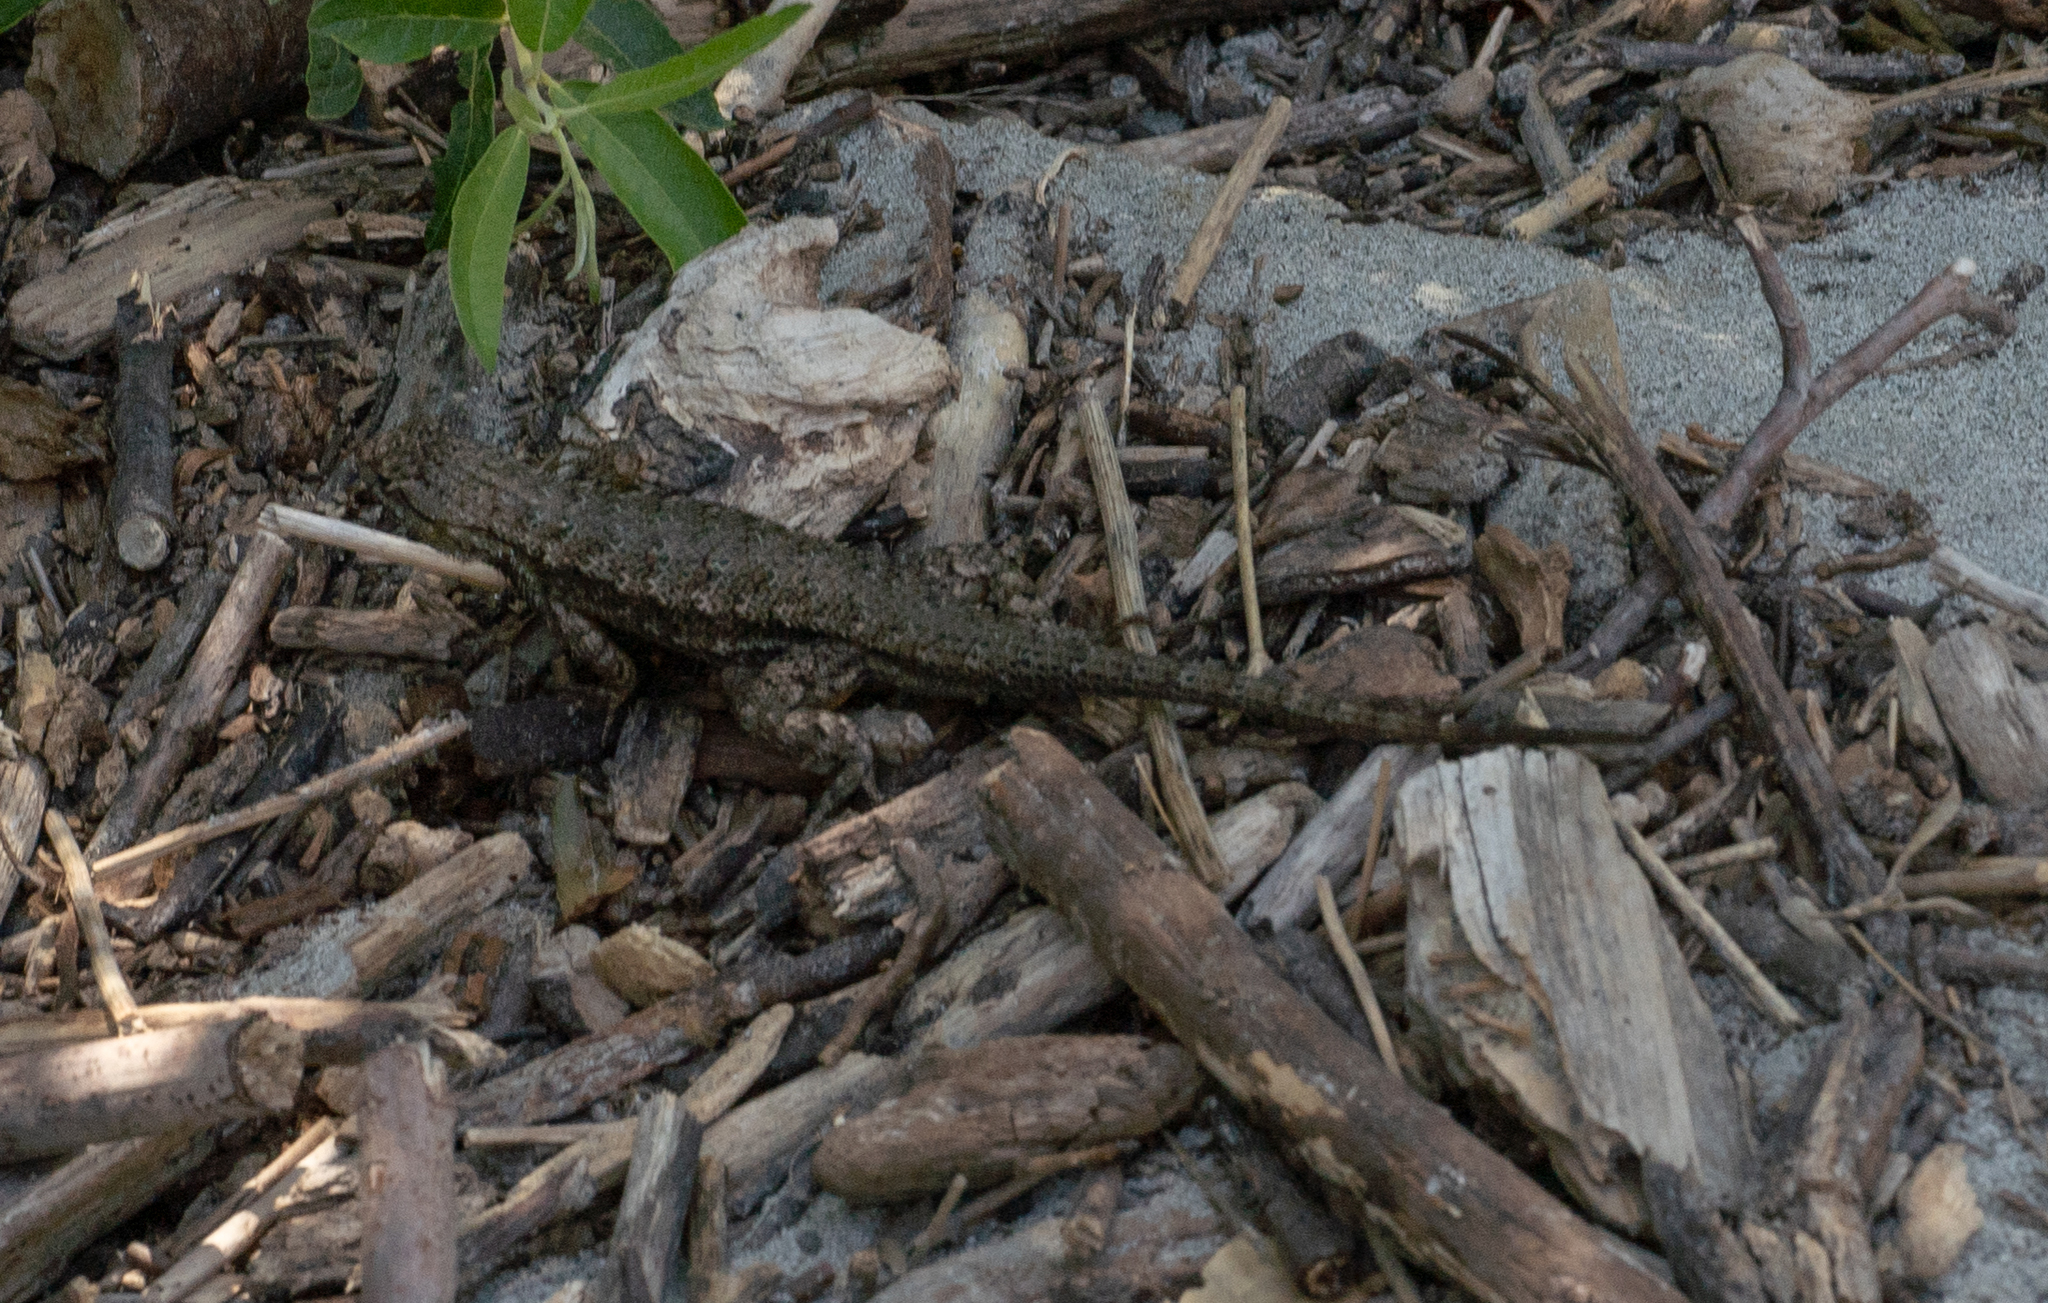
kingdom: Animalia
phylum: Chordata
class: Squamata
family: Phrynosomatidae
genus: Sceloporus
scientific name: Sceloporus occidentalis
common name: Western fence lizard
